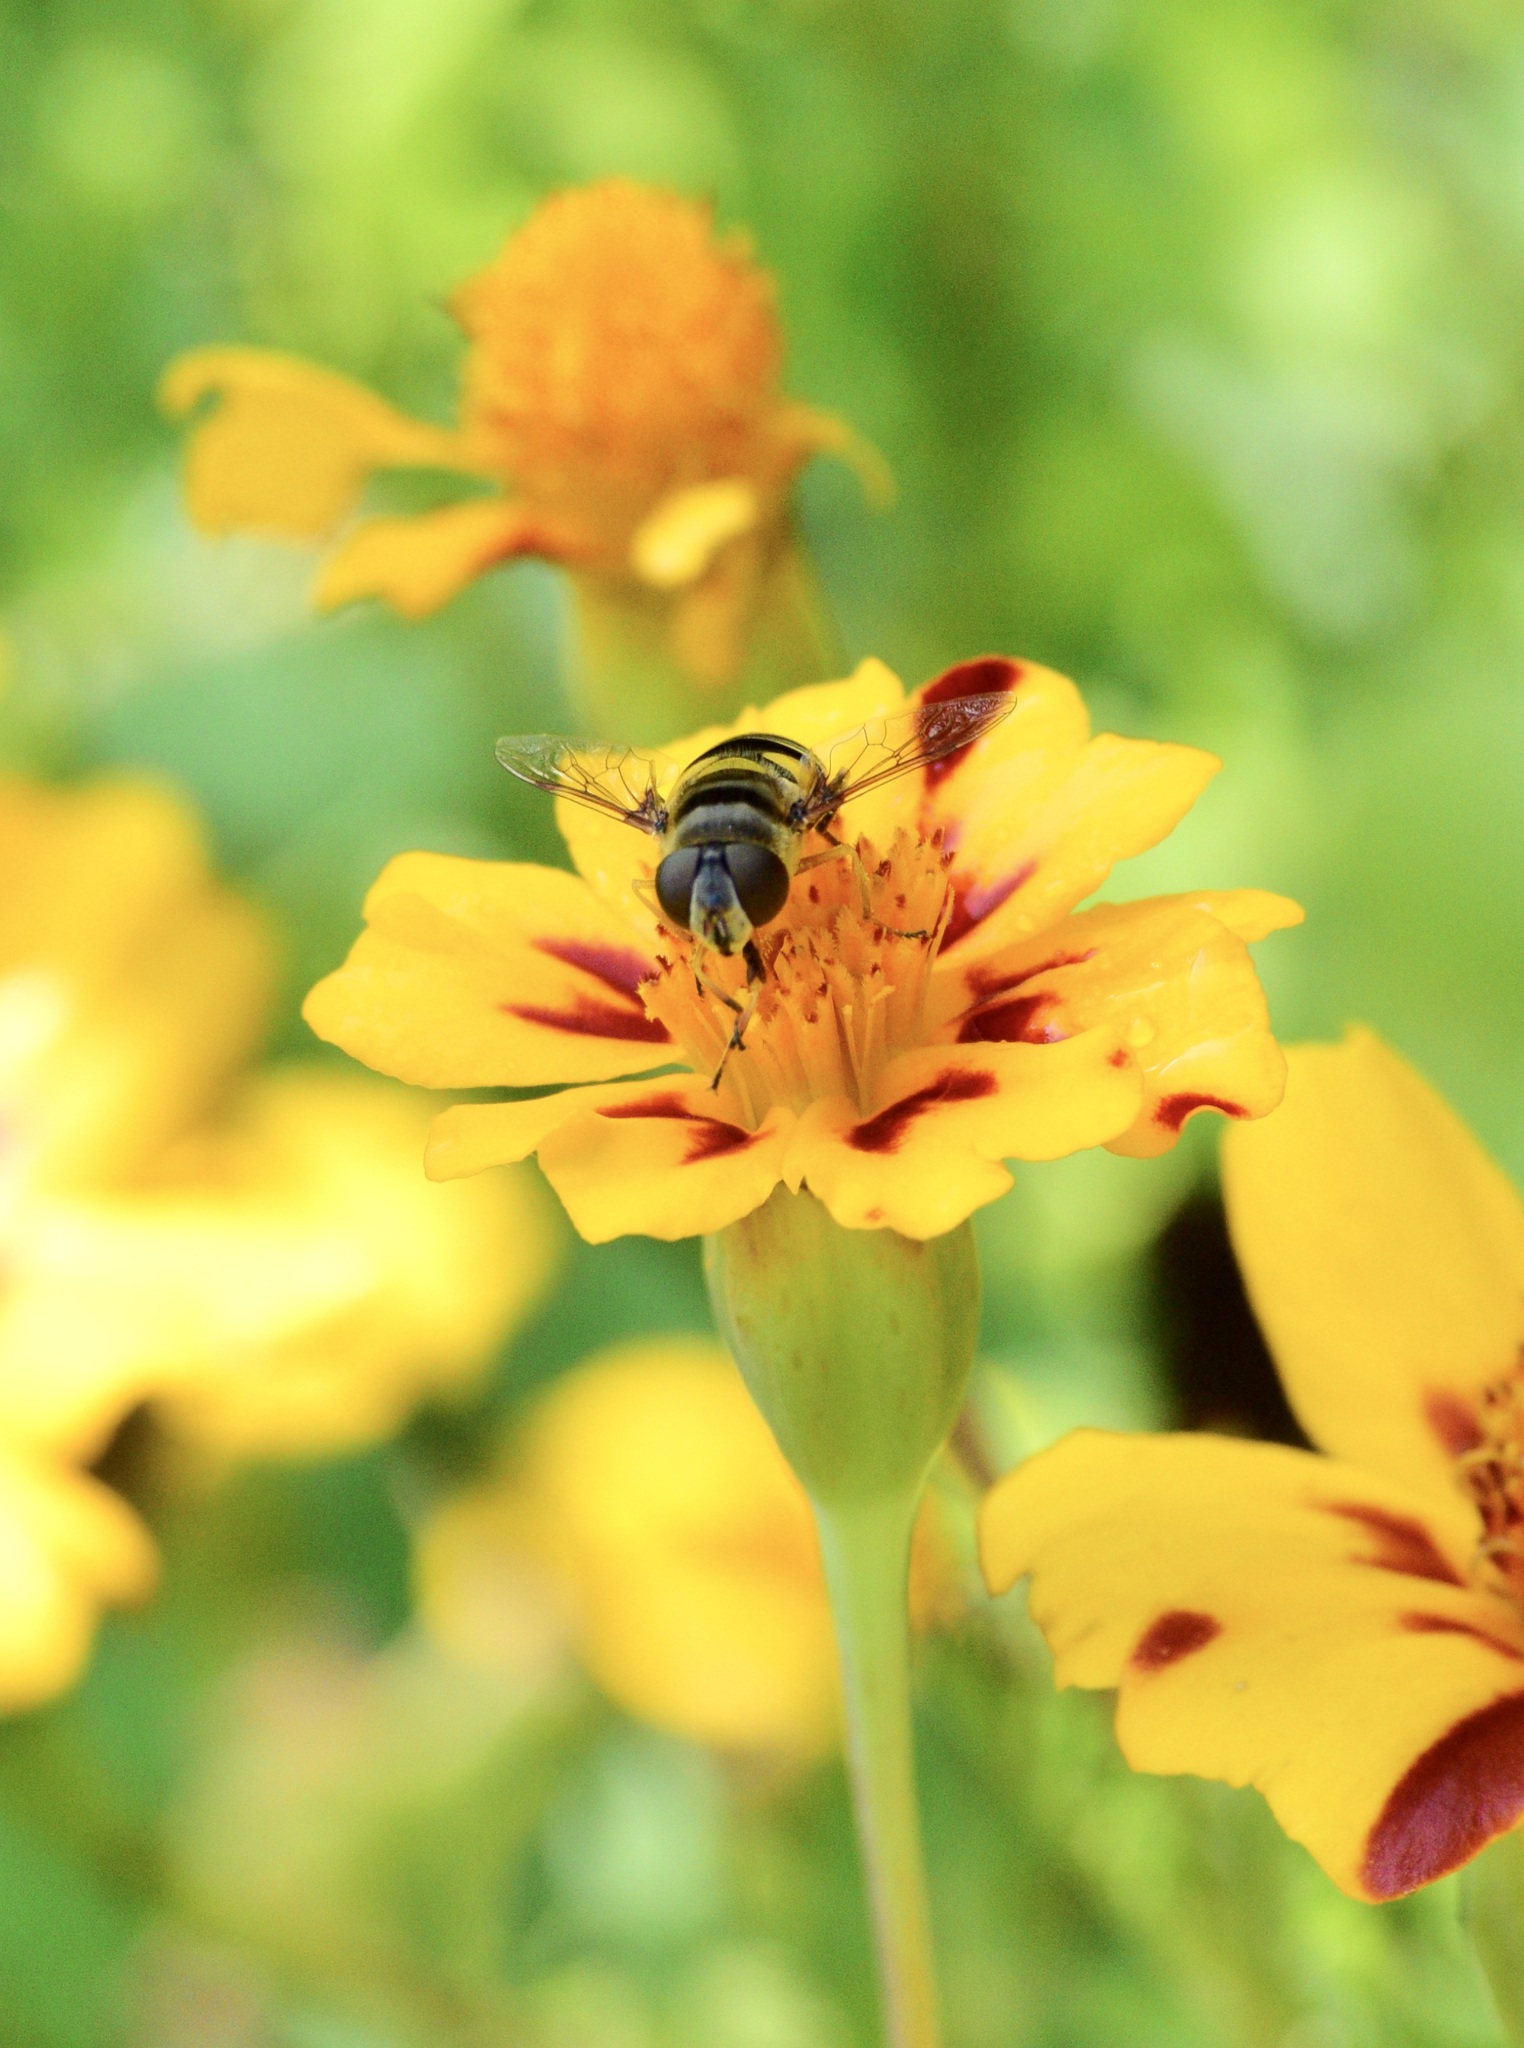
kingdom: Animalia
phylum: Arthropoda
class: Insecta
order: Diptera
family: Syrphidae
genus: Eristalis
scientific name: Eristalis transversa
